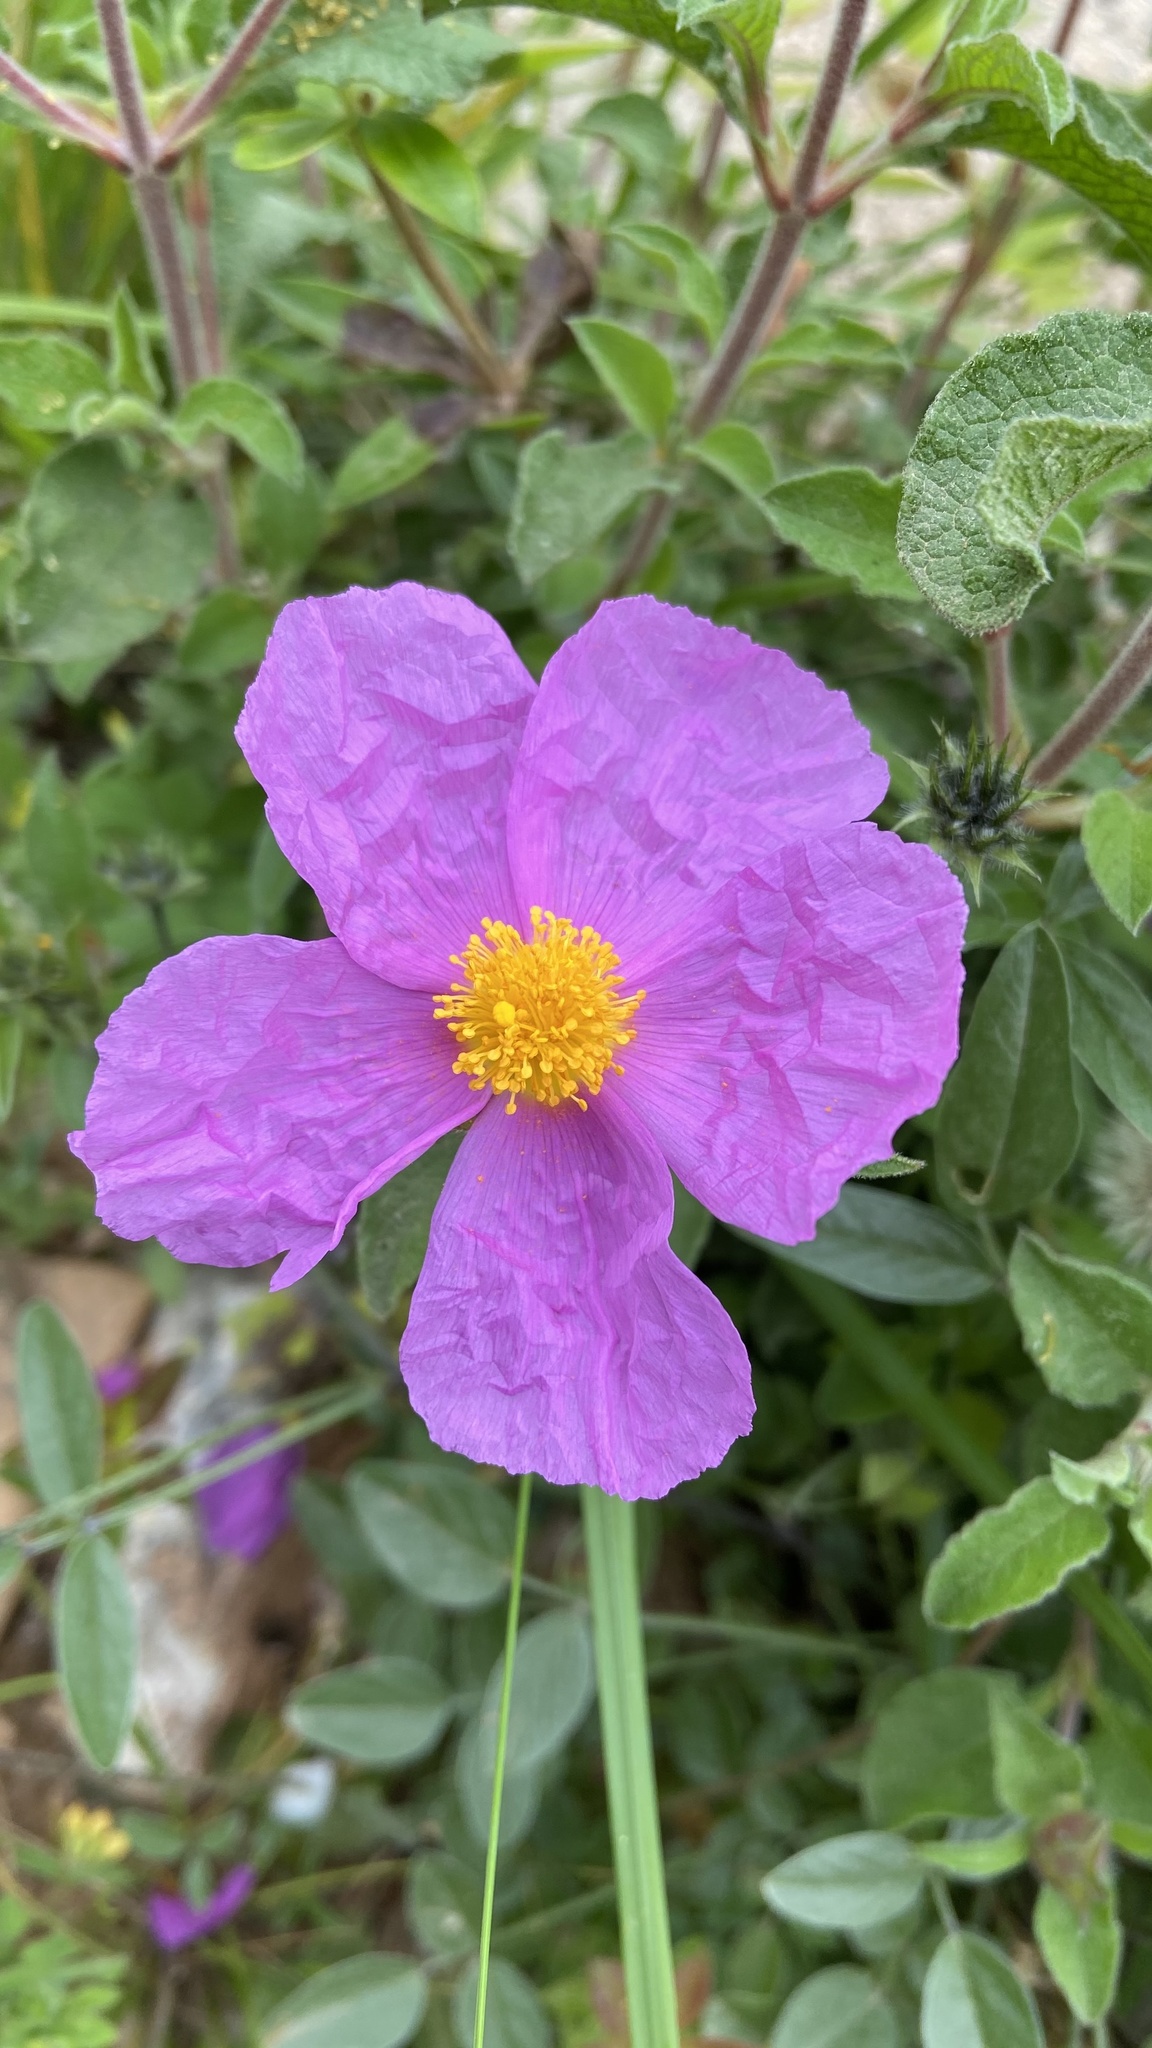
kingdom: Plantae
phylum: Tracheophyta
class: Magnoliopsida
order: Malvales
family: Cistaceae
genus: Cistus
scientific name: Cistus creticus
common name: Cretan rockrose
